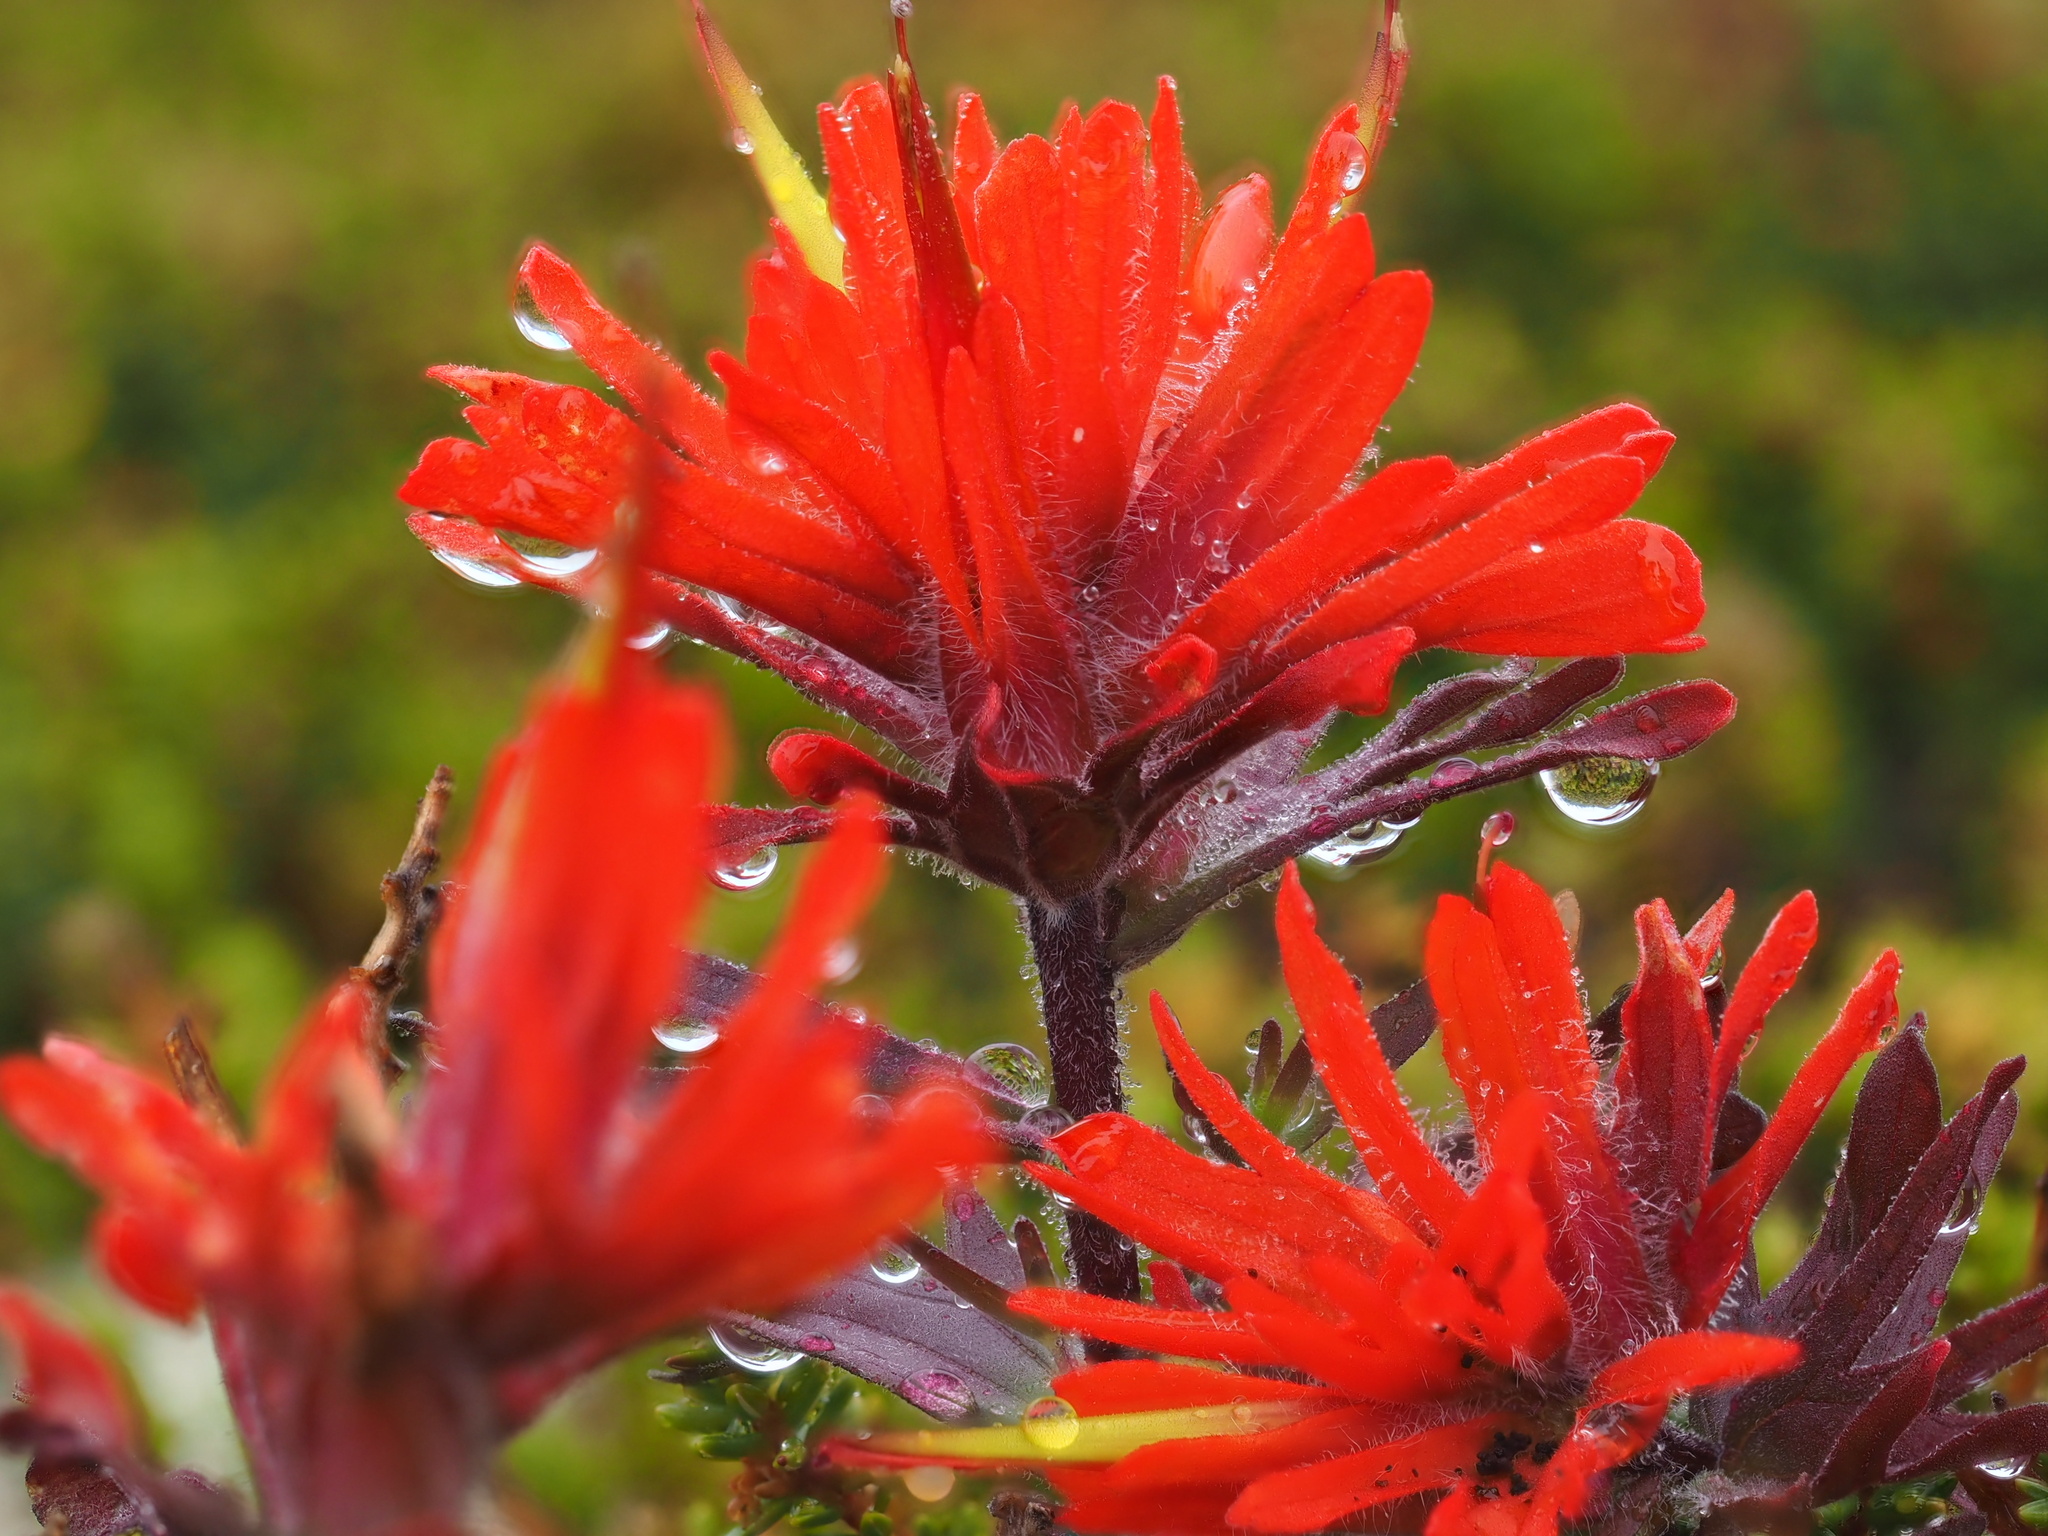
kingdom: Plantae
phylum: Tracheophyta
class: Magnoliopsida
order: Lamiales
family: Orobanchaceae
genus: Castilleja
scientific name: Castilleja rupicola
